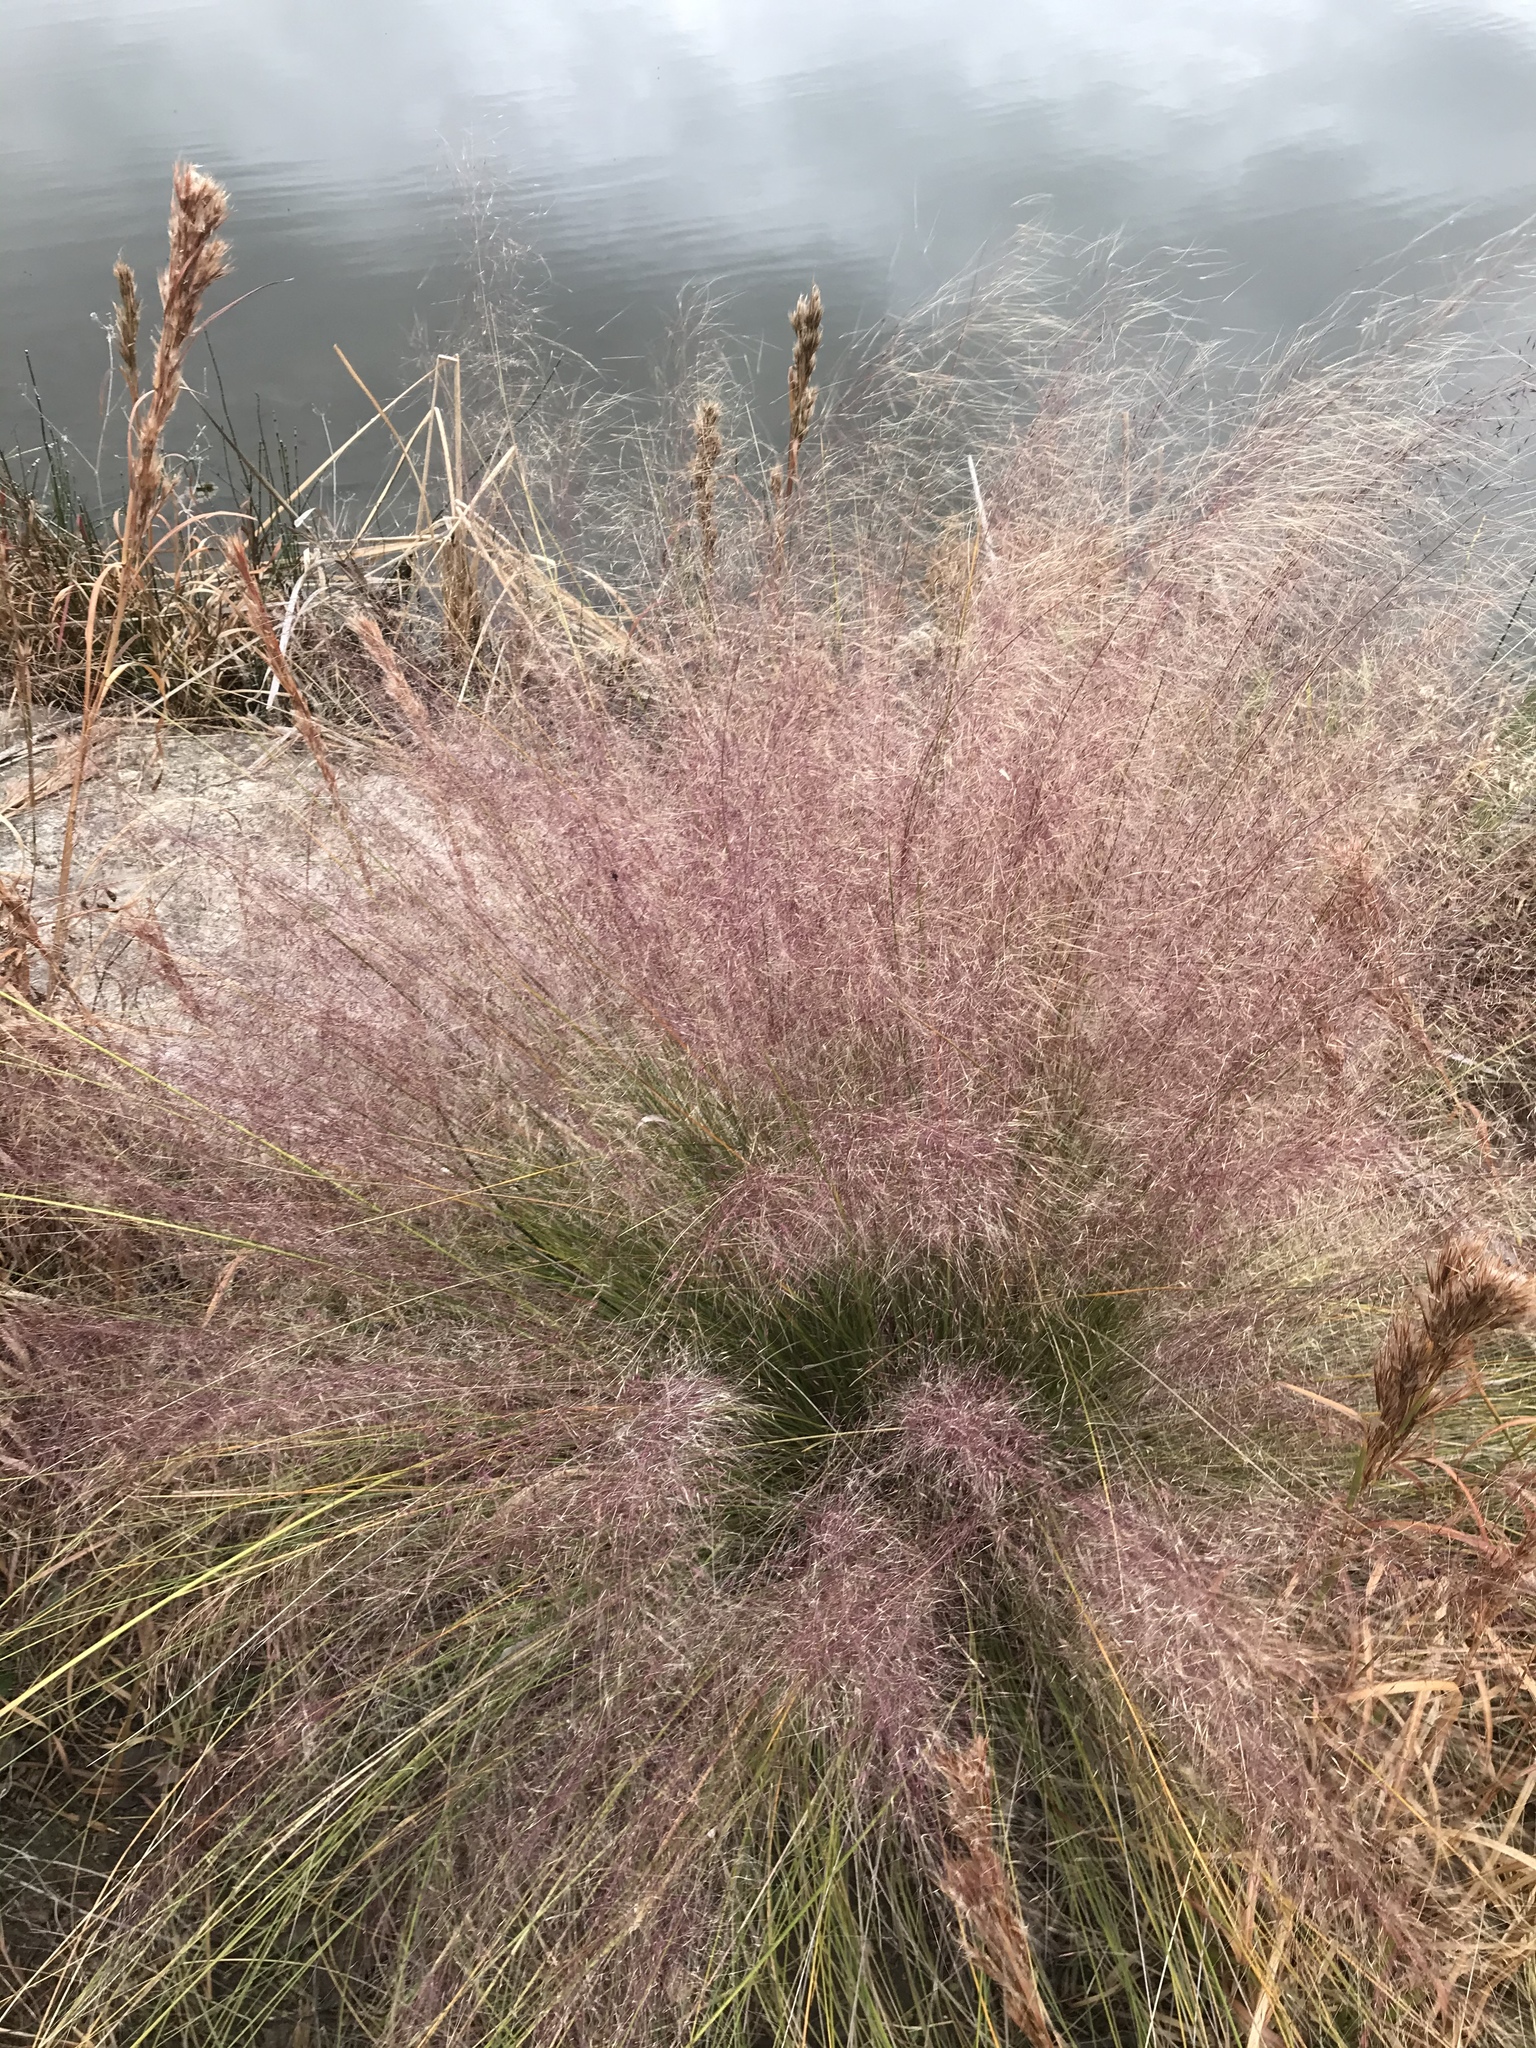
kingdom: Plantae
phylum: Tracheophyta
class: Liliopsida
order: Poales
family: Poaceae
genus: Muhlenbergia
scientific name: Muhlenbergia capillaris
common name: Purple grass
